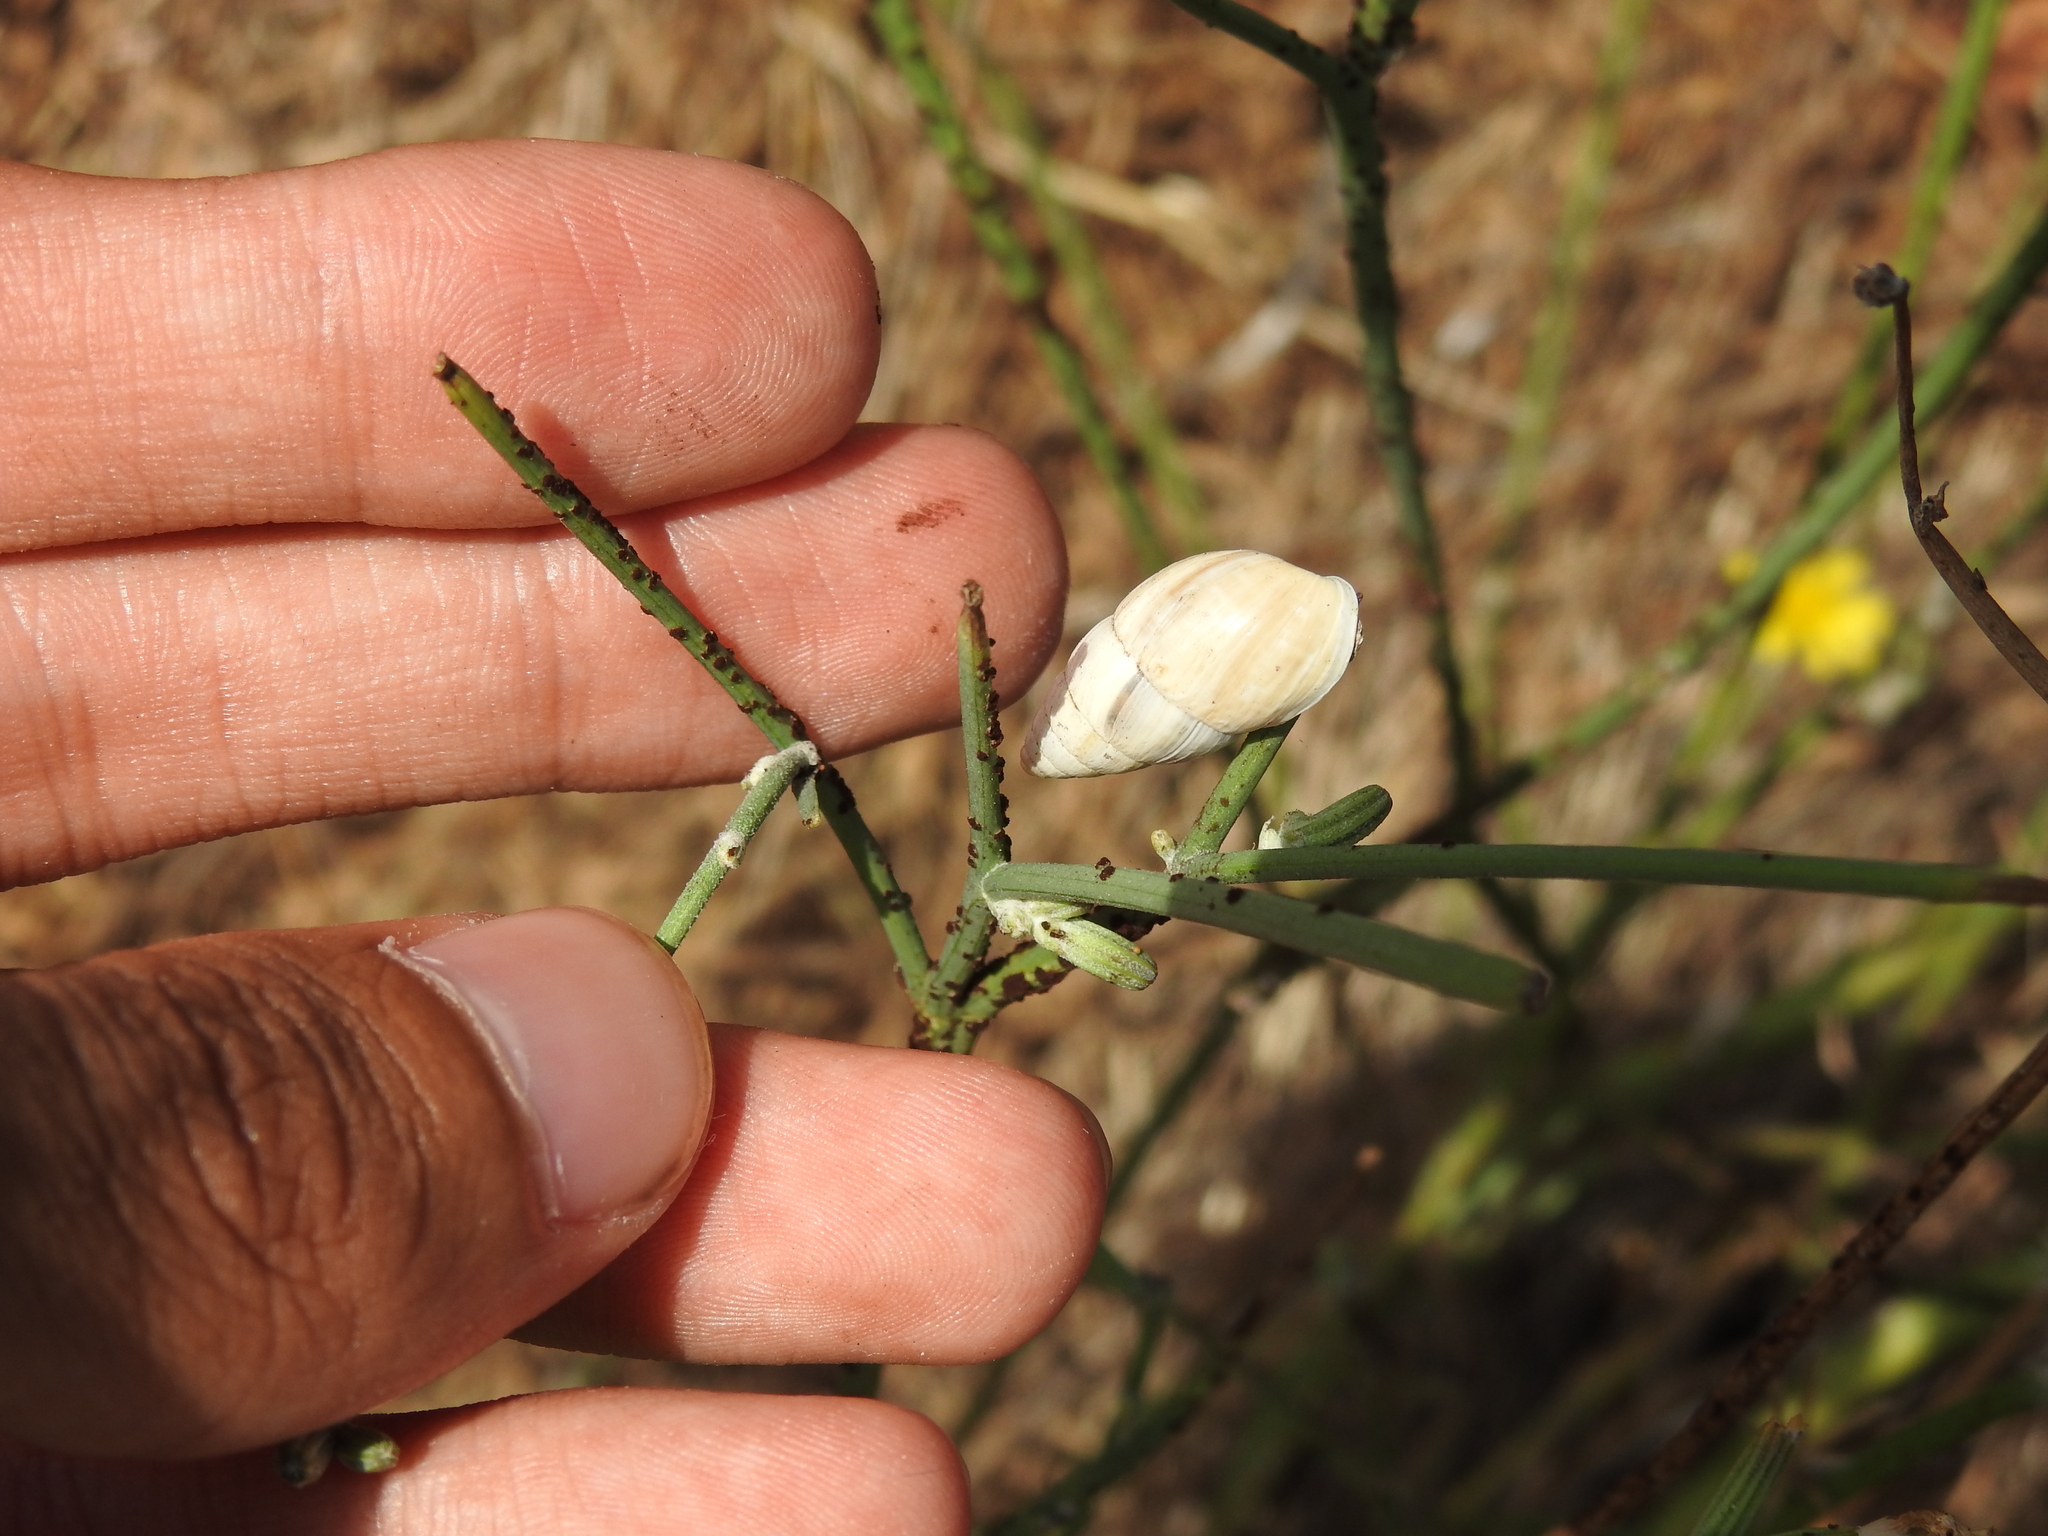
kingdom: Animalia
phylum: Mollusca
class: Gastropoda
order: Stylommatophora
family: Enidae
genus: Zebrina
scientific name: Zebrina detrita
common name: Large bulin
